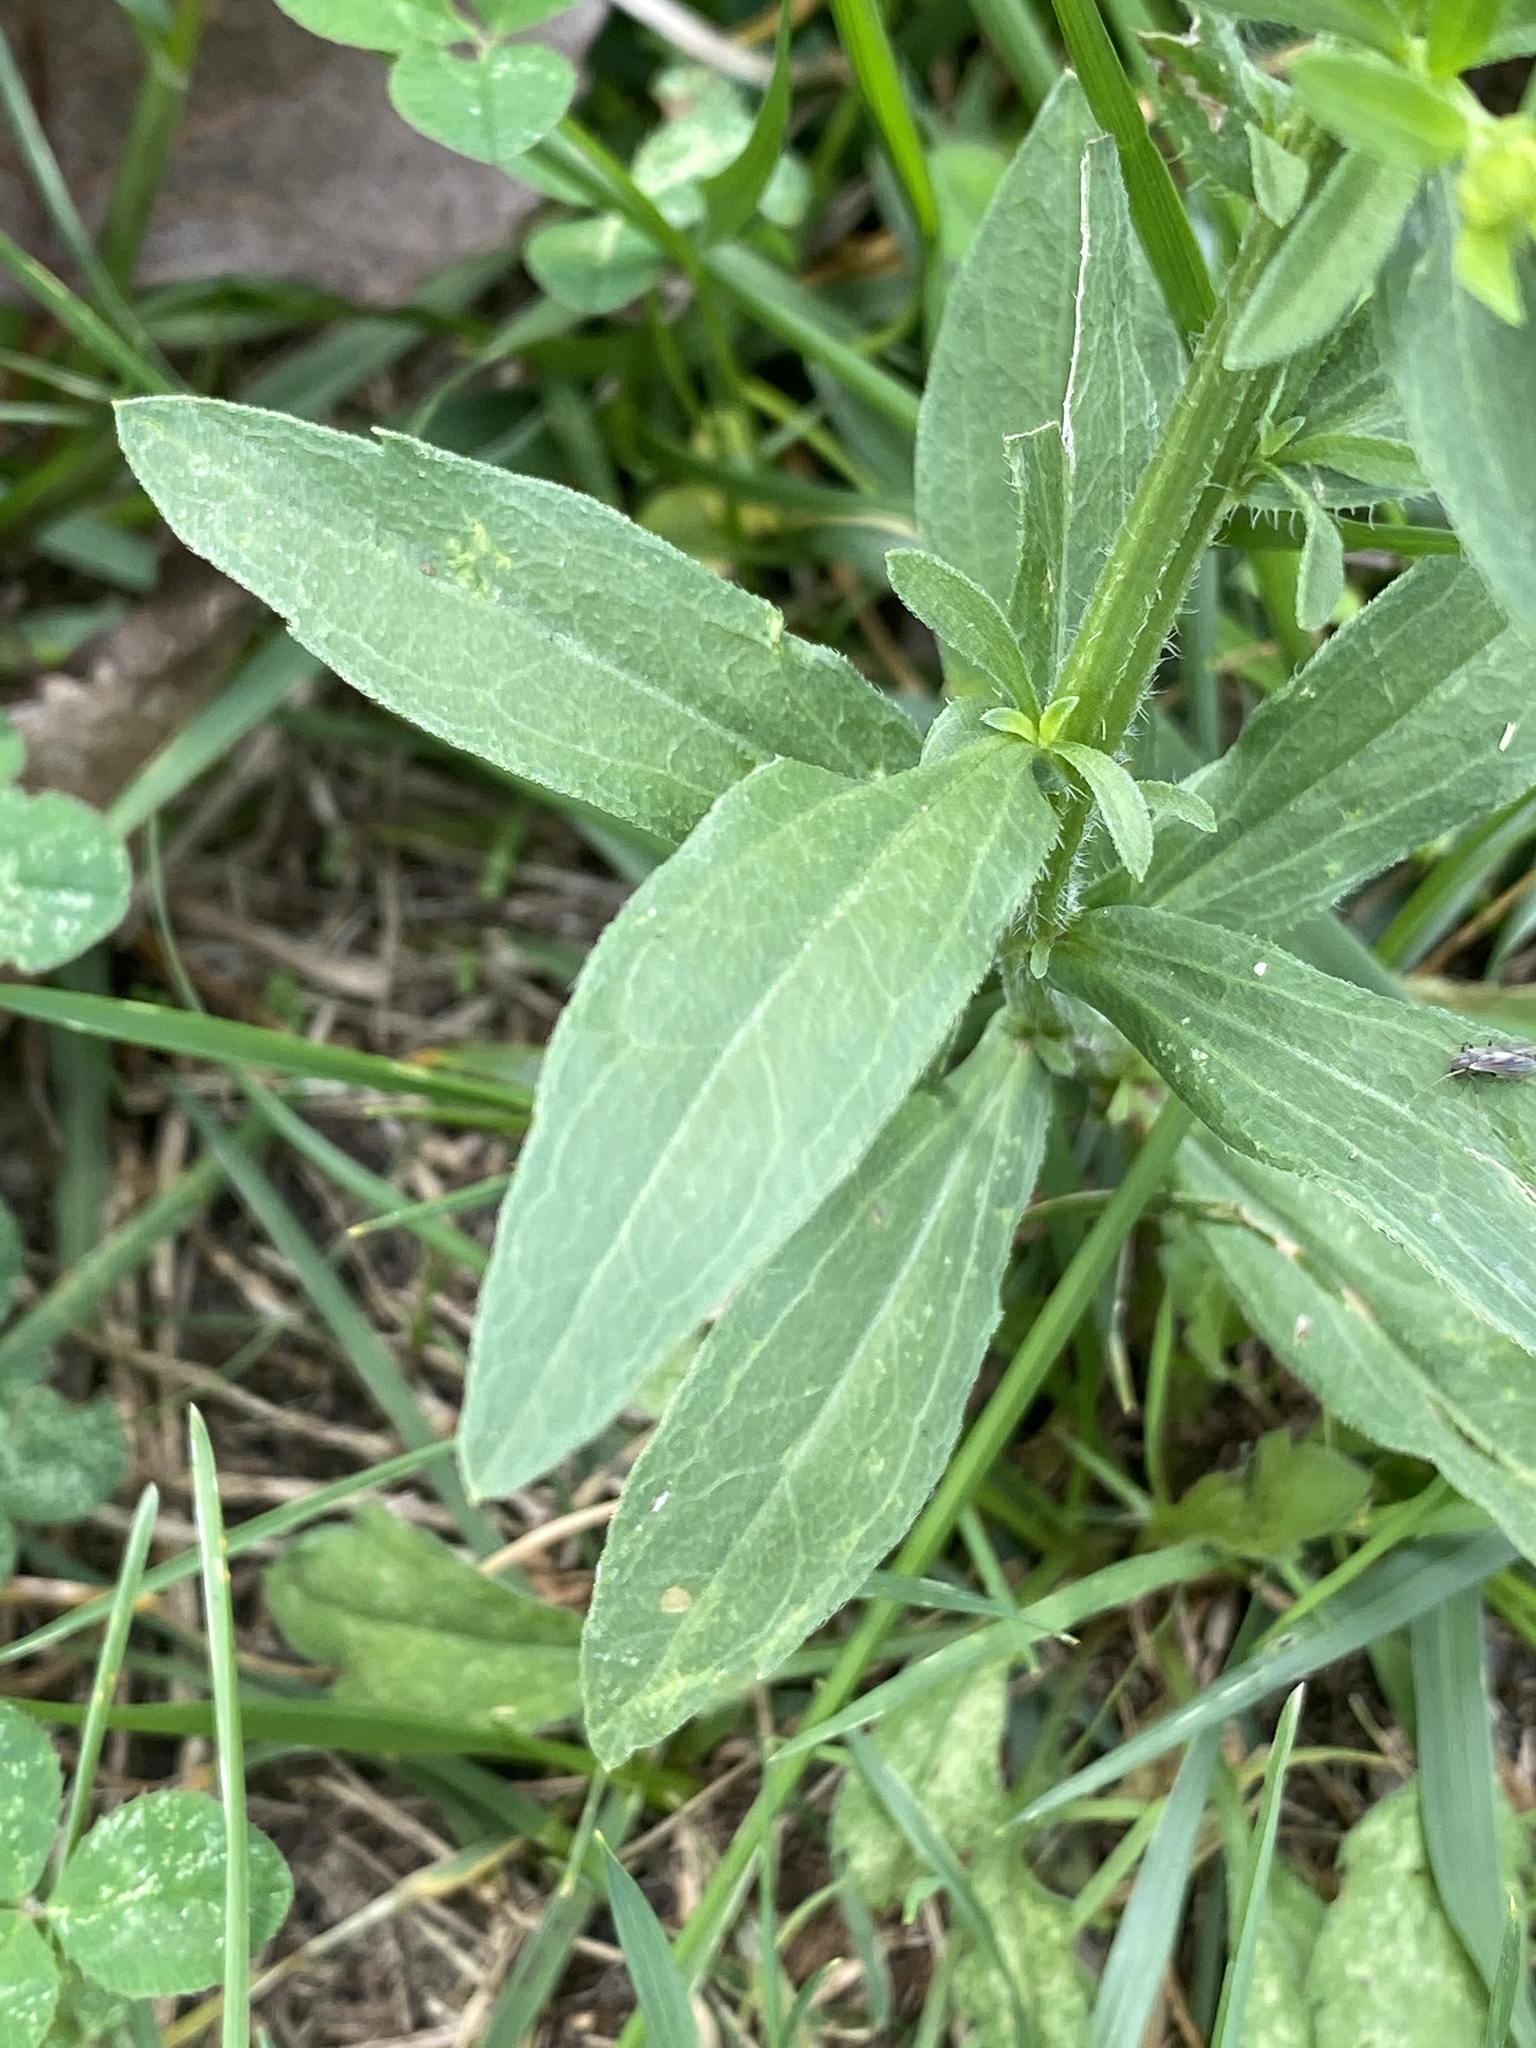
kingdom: Plantae
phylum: Tracheophyta
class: Magnoliopsida
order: Asterales
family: Asteraceae
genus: Erigeron
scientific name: Erigeron strigosus
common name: Common eastern fleabane
